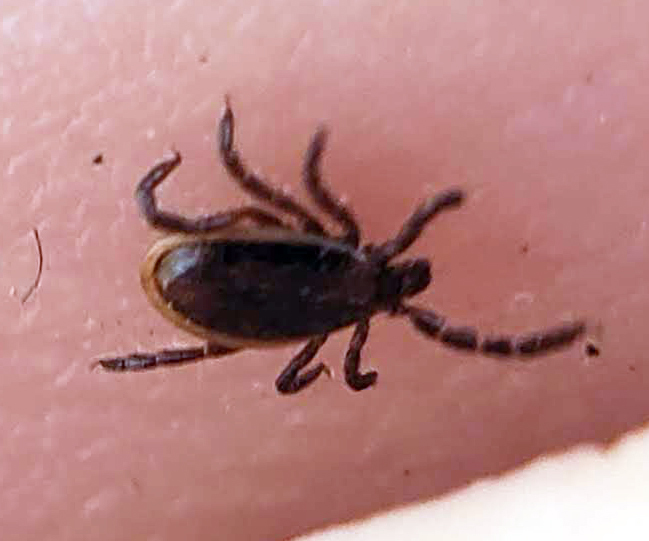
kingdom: Animalia
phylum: Arthropoda
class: Arachnida
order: Ixodida
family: Ixodidae
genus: Ixodes
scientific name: Ixodes scapularis
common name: Black legged tick
